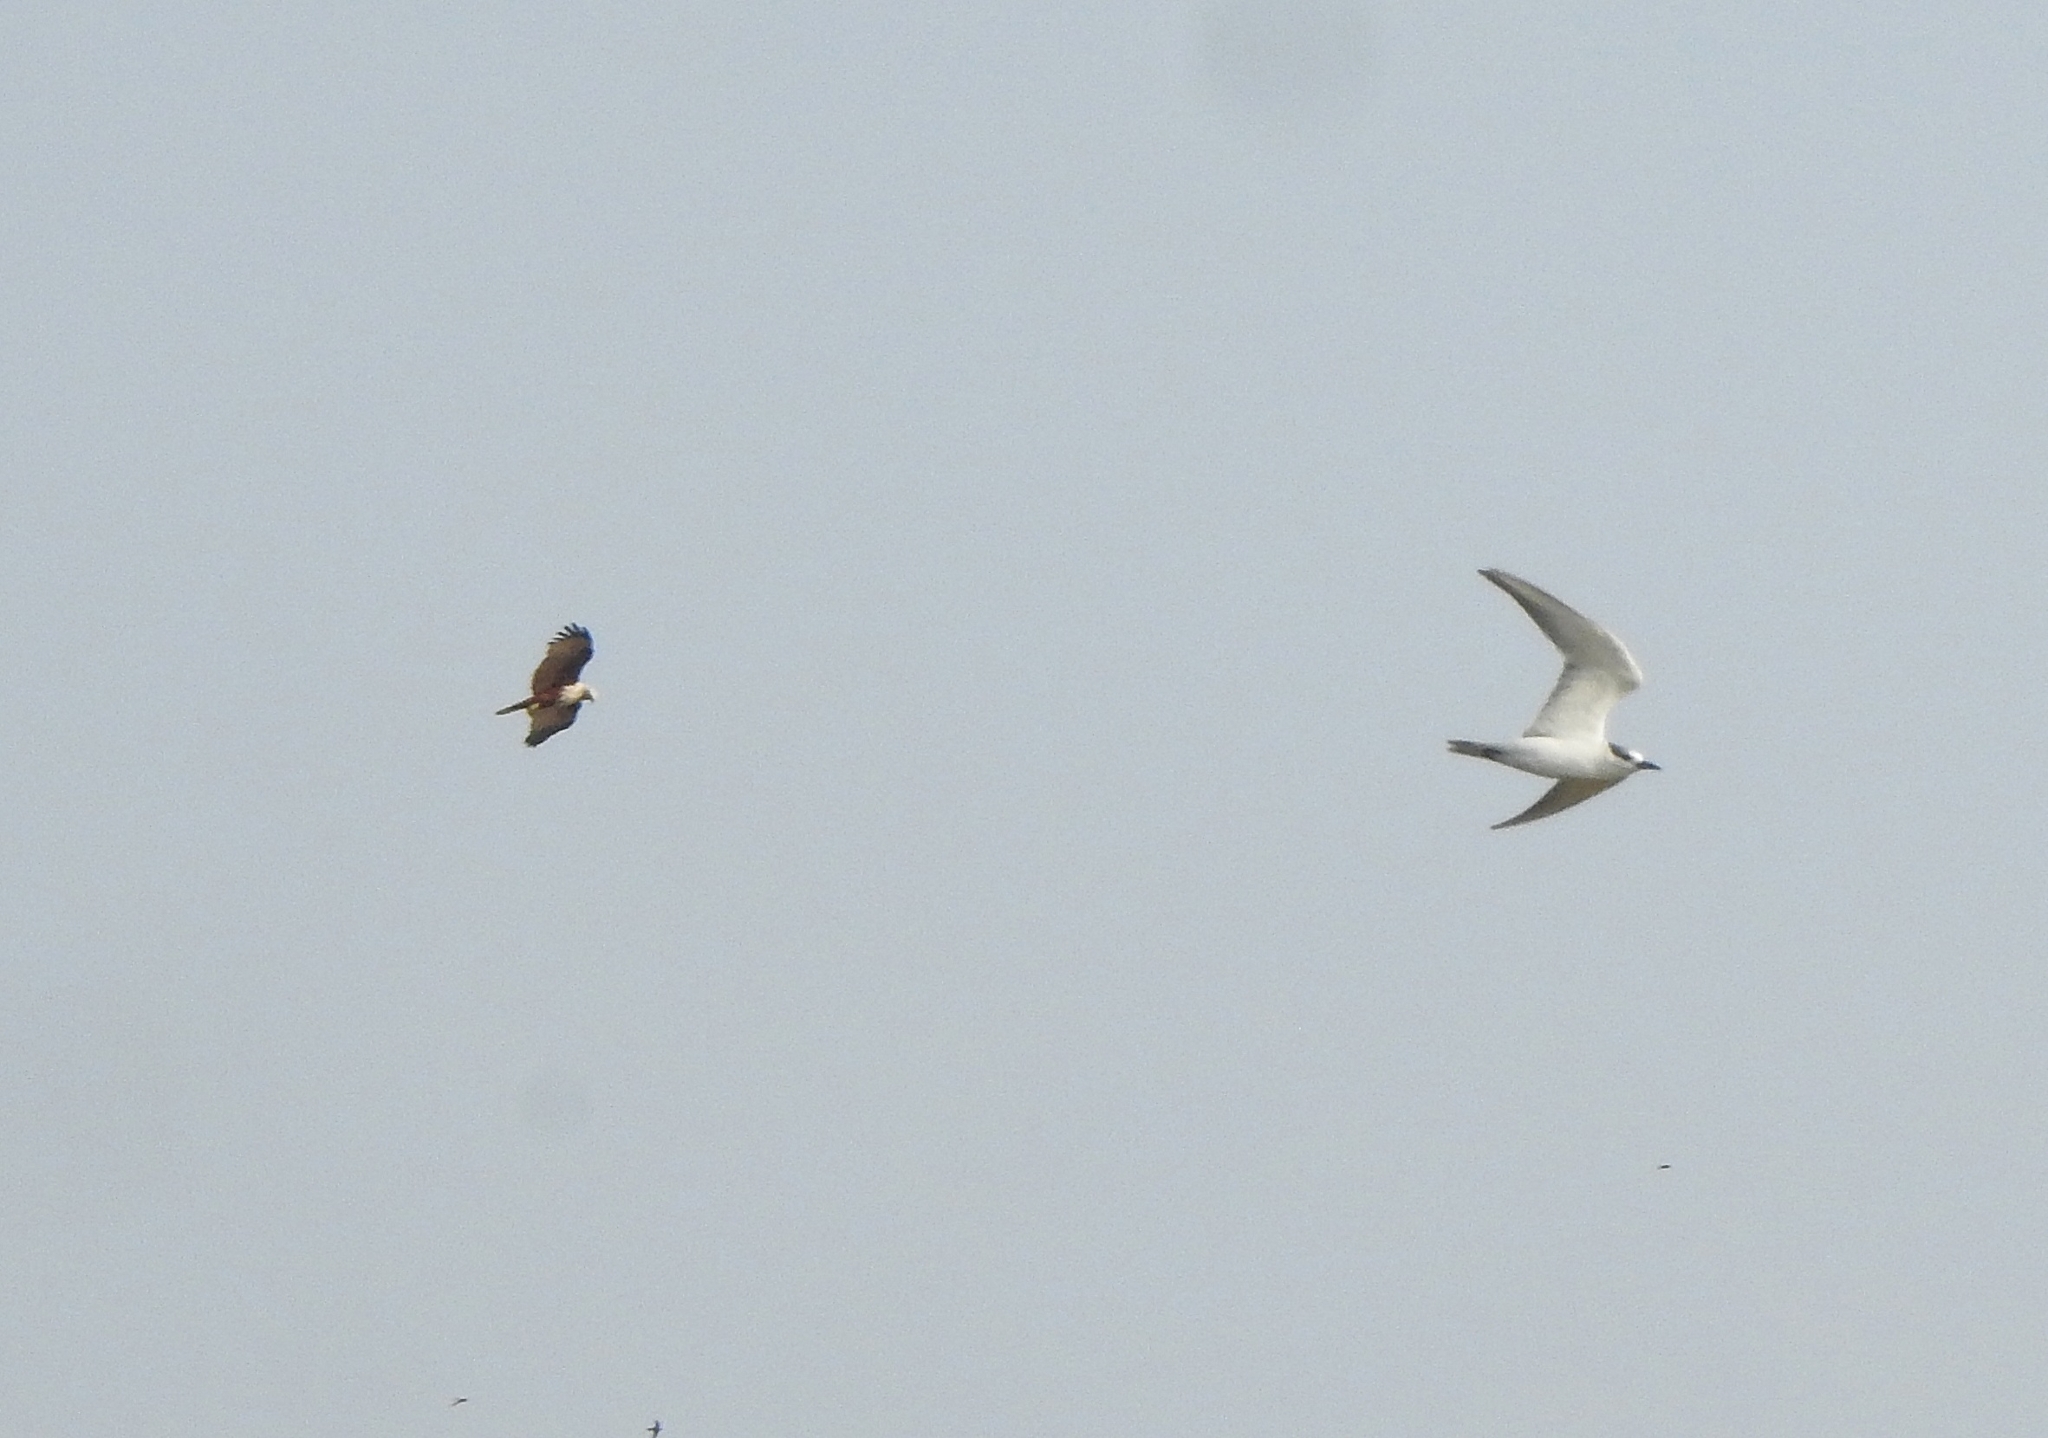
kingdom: Animalia
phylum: Chordata
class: Aves
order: Accipitriformes
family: Accipitridae
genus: Haliastur
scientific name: Haliastur indus
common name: Brahminy kite
